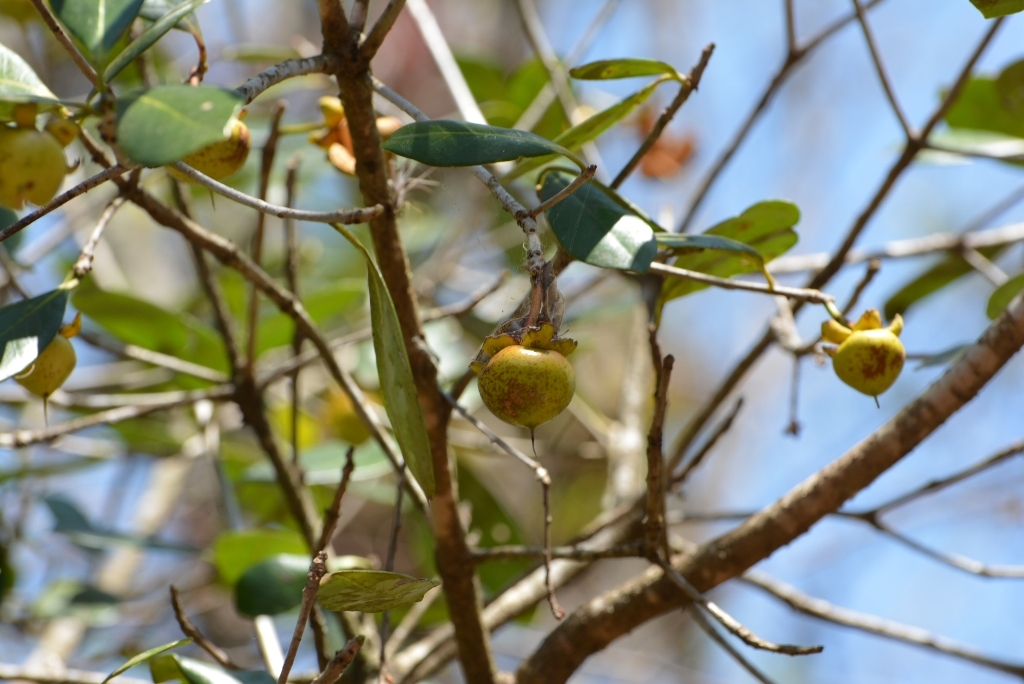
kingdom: Plantae
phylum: Tracheophyta
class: Magnoliopsida
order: Ericales
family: Pentaphylacaceae
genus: Ternstroemia
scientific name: Ternstroemia tepezapote
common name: Copey vera
